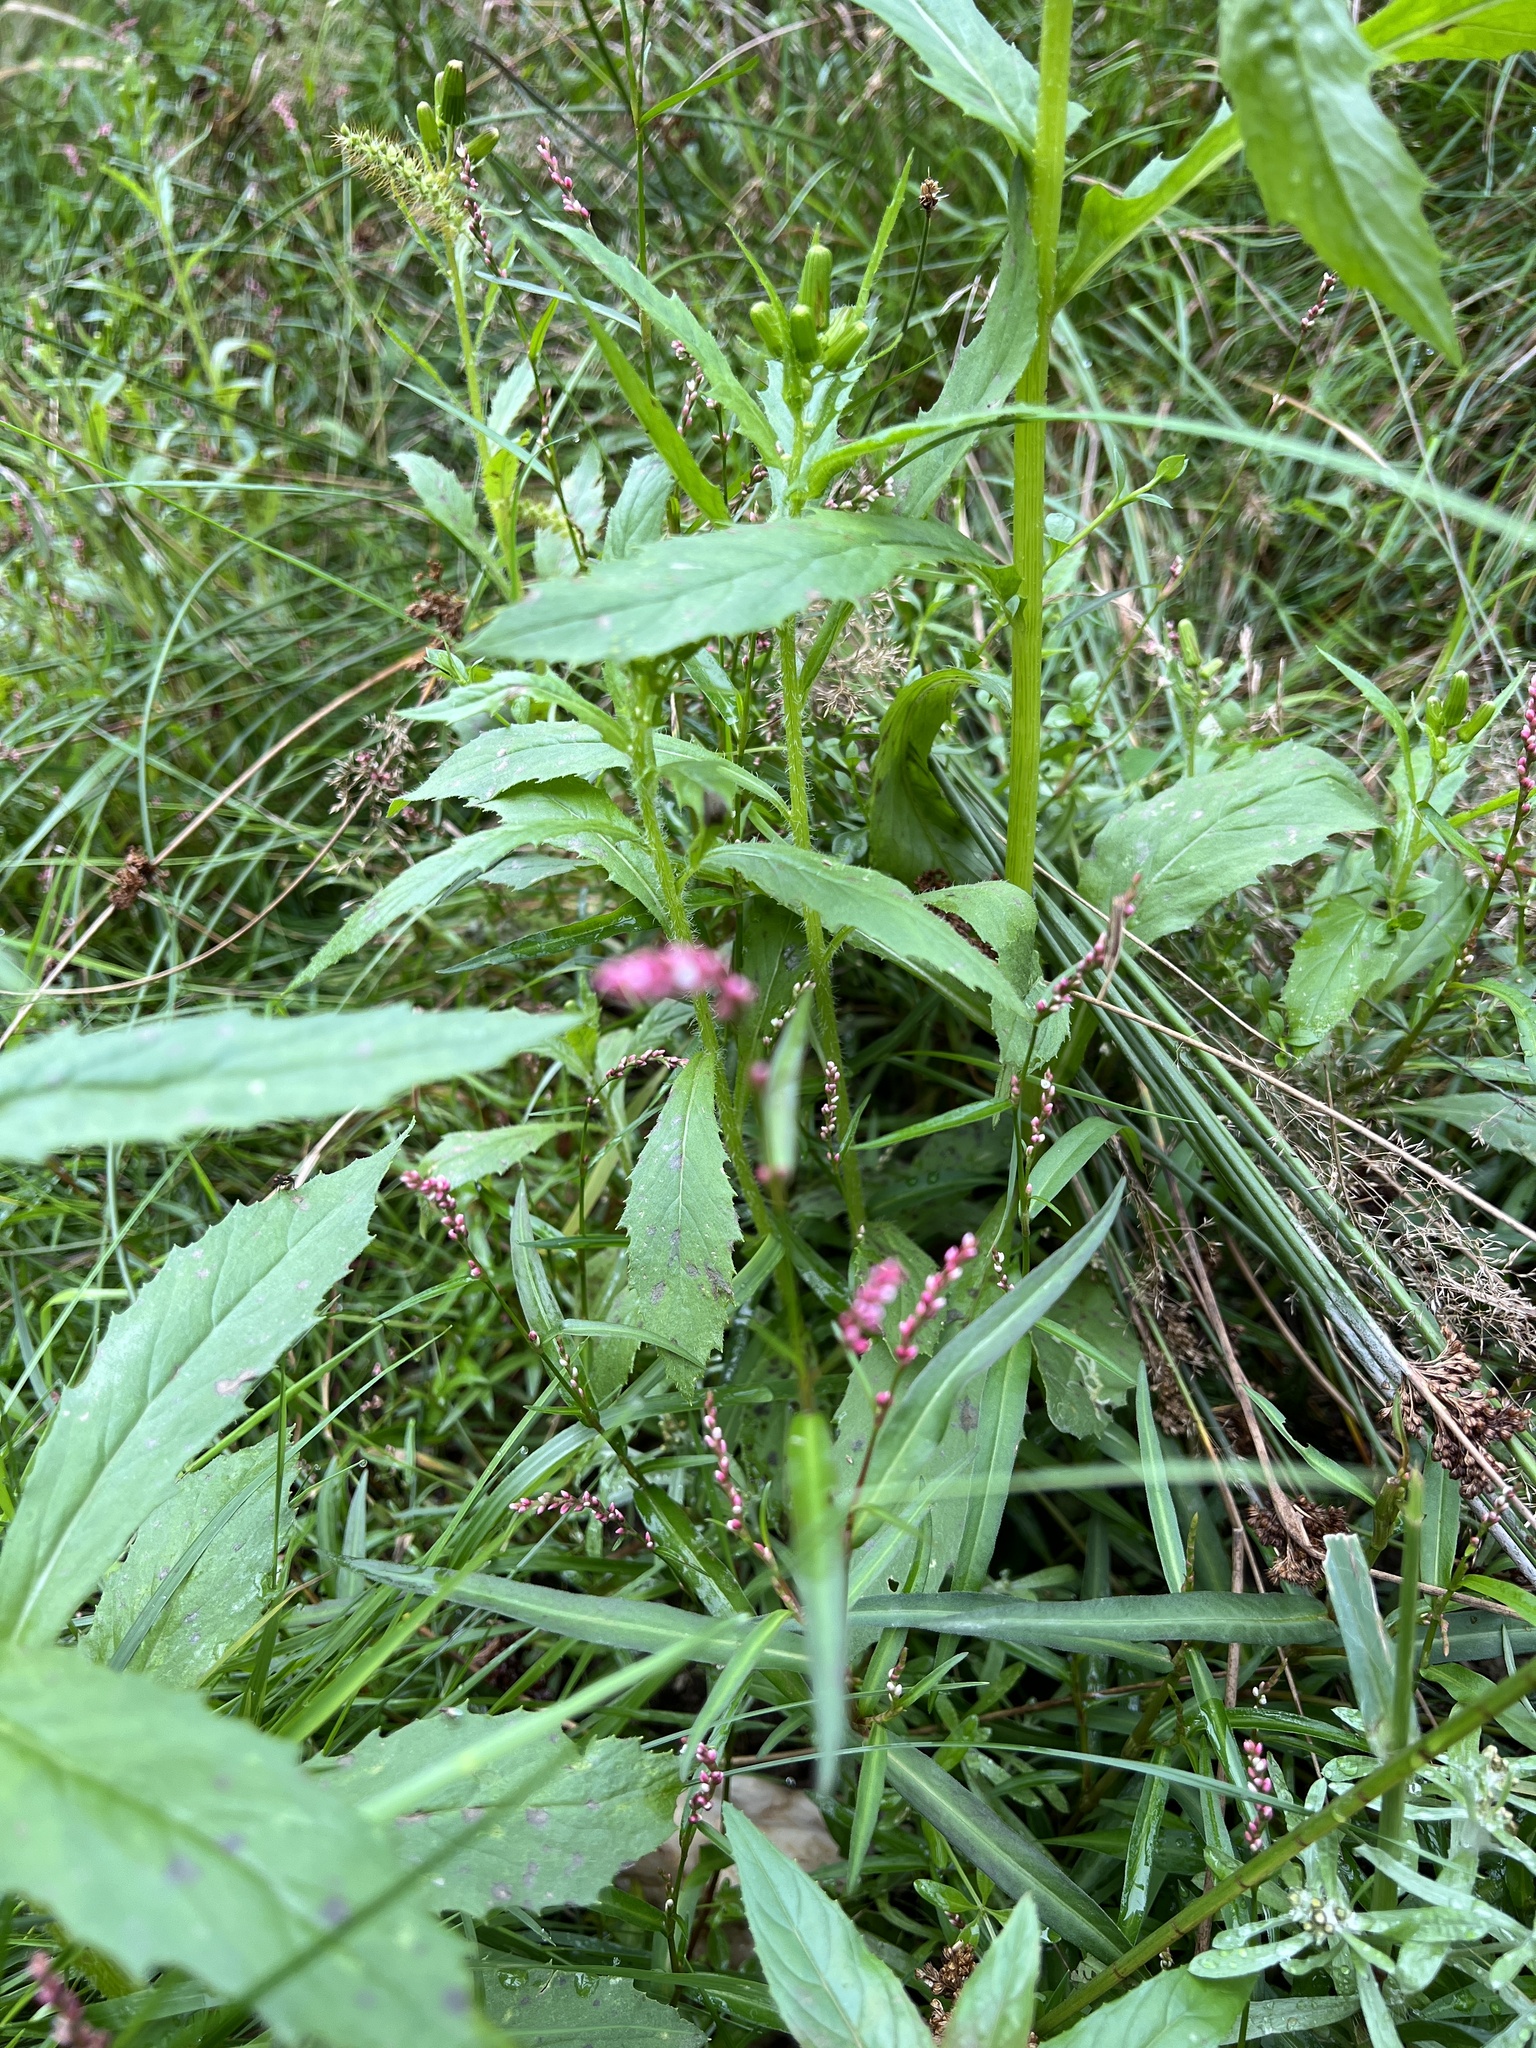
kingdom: Plantae
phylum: Tracheophyta
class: Magnoliopsida
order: Caryophyllales
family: Polygonaceae
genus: Persicaria
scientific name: Persicaria minor
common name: Small water-pepper
